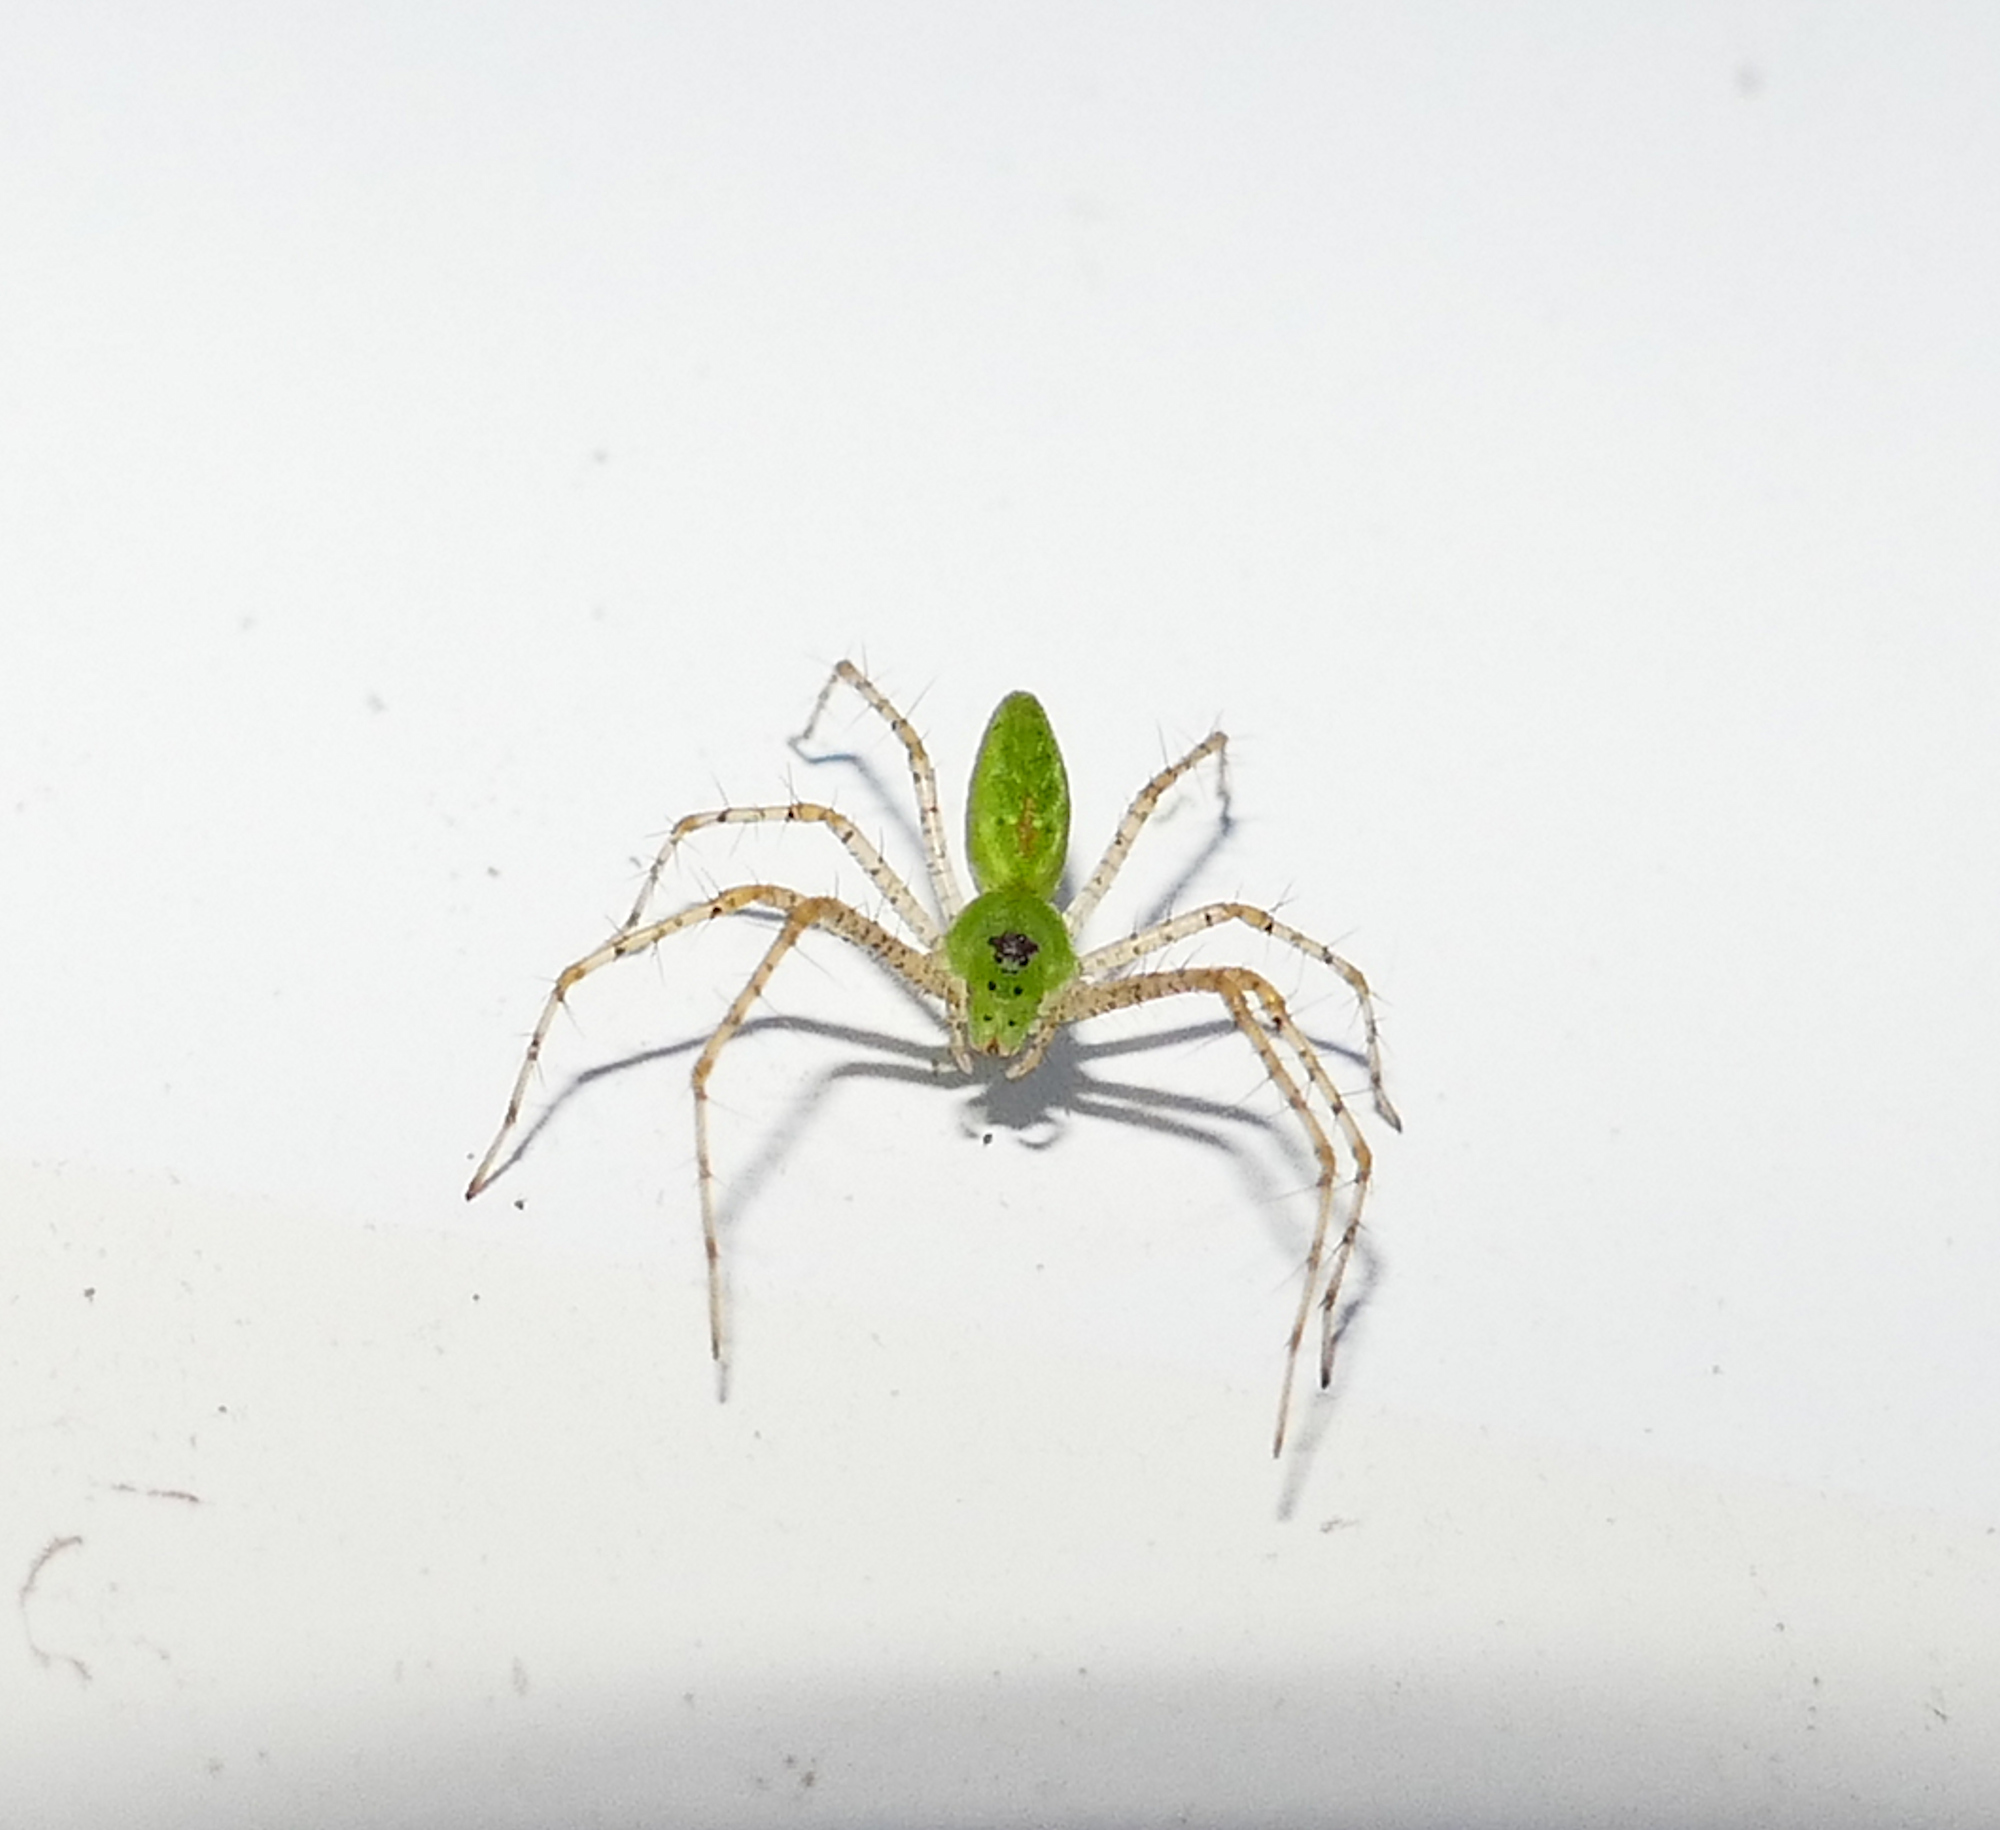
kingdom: Animalia
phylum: Arthropoda
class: Arachnida
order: Araneae
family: Oxyopidae
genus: Peucetia
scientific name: Peucetia viridans
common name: Lynx spiders
